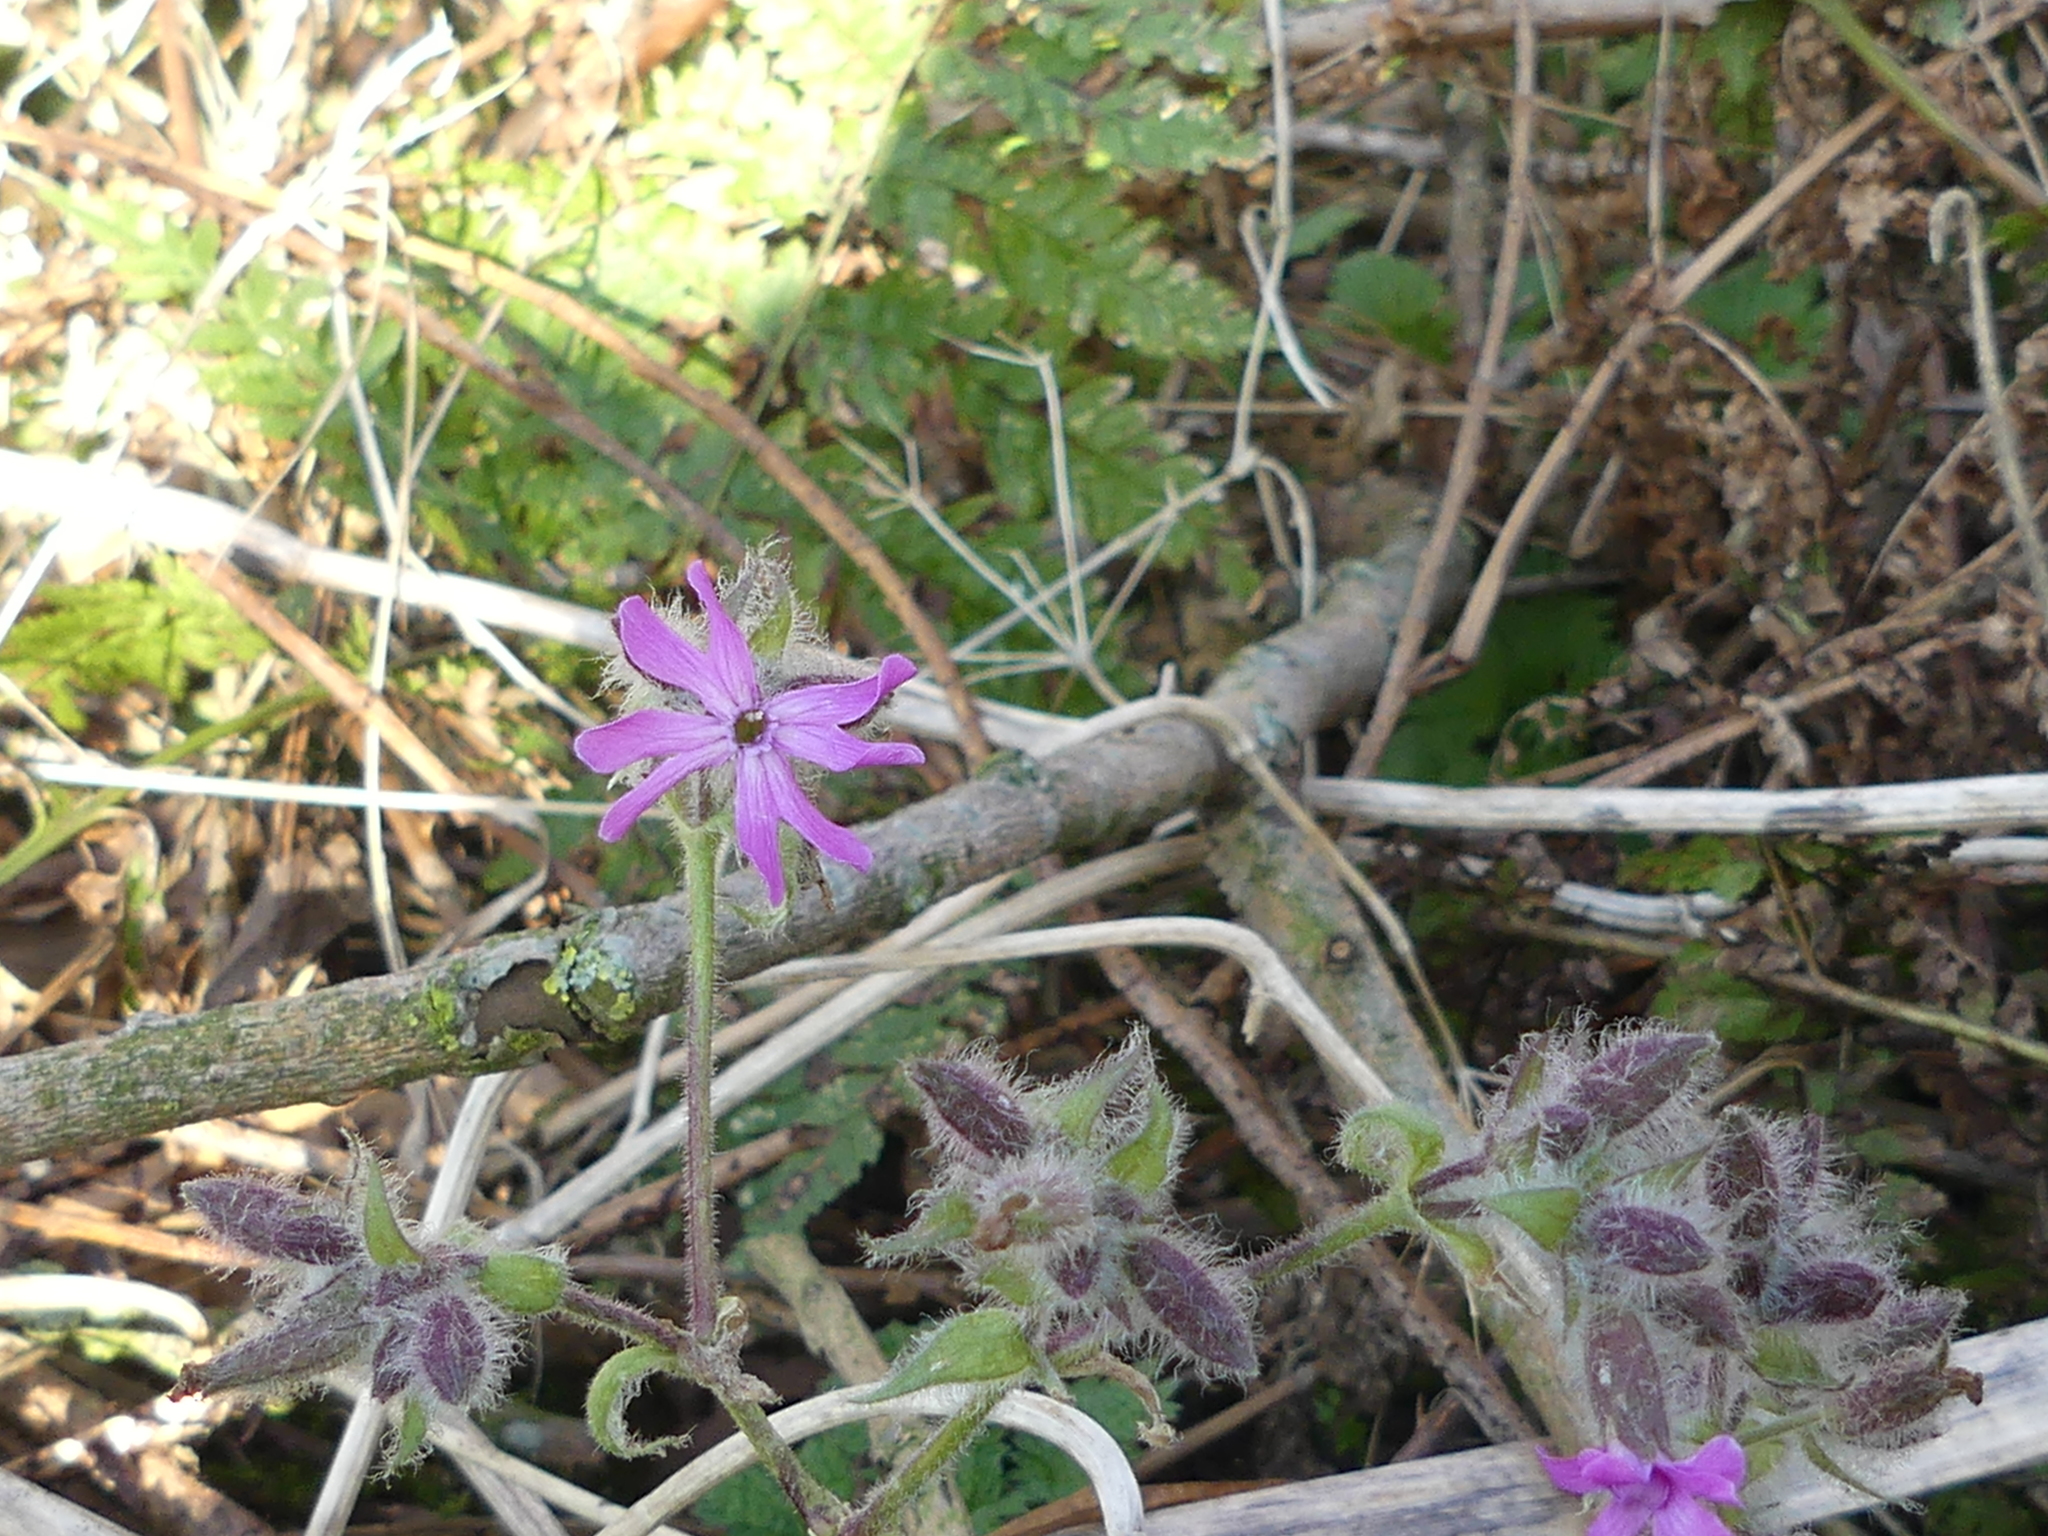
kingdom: Plantae
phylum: Tracheophyta
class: Magnoliopsida
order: Caryophyllales
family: Caryophyllaceae
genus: Silene
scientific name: Silene dioica
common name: Red campion
